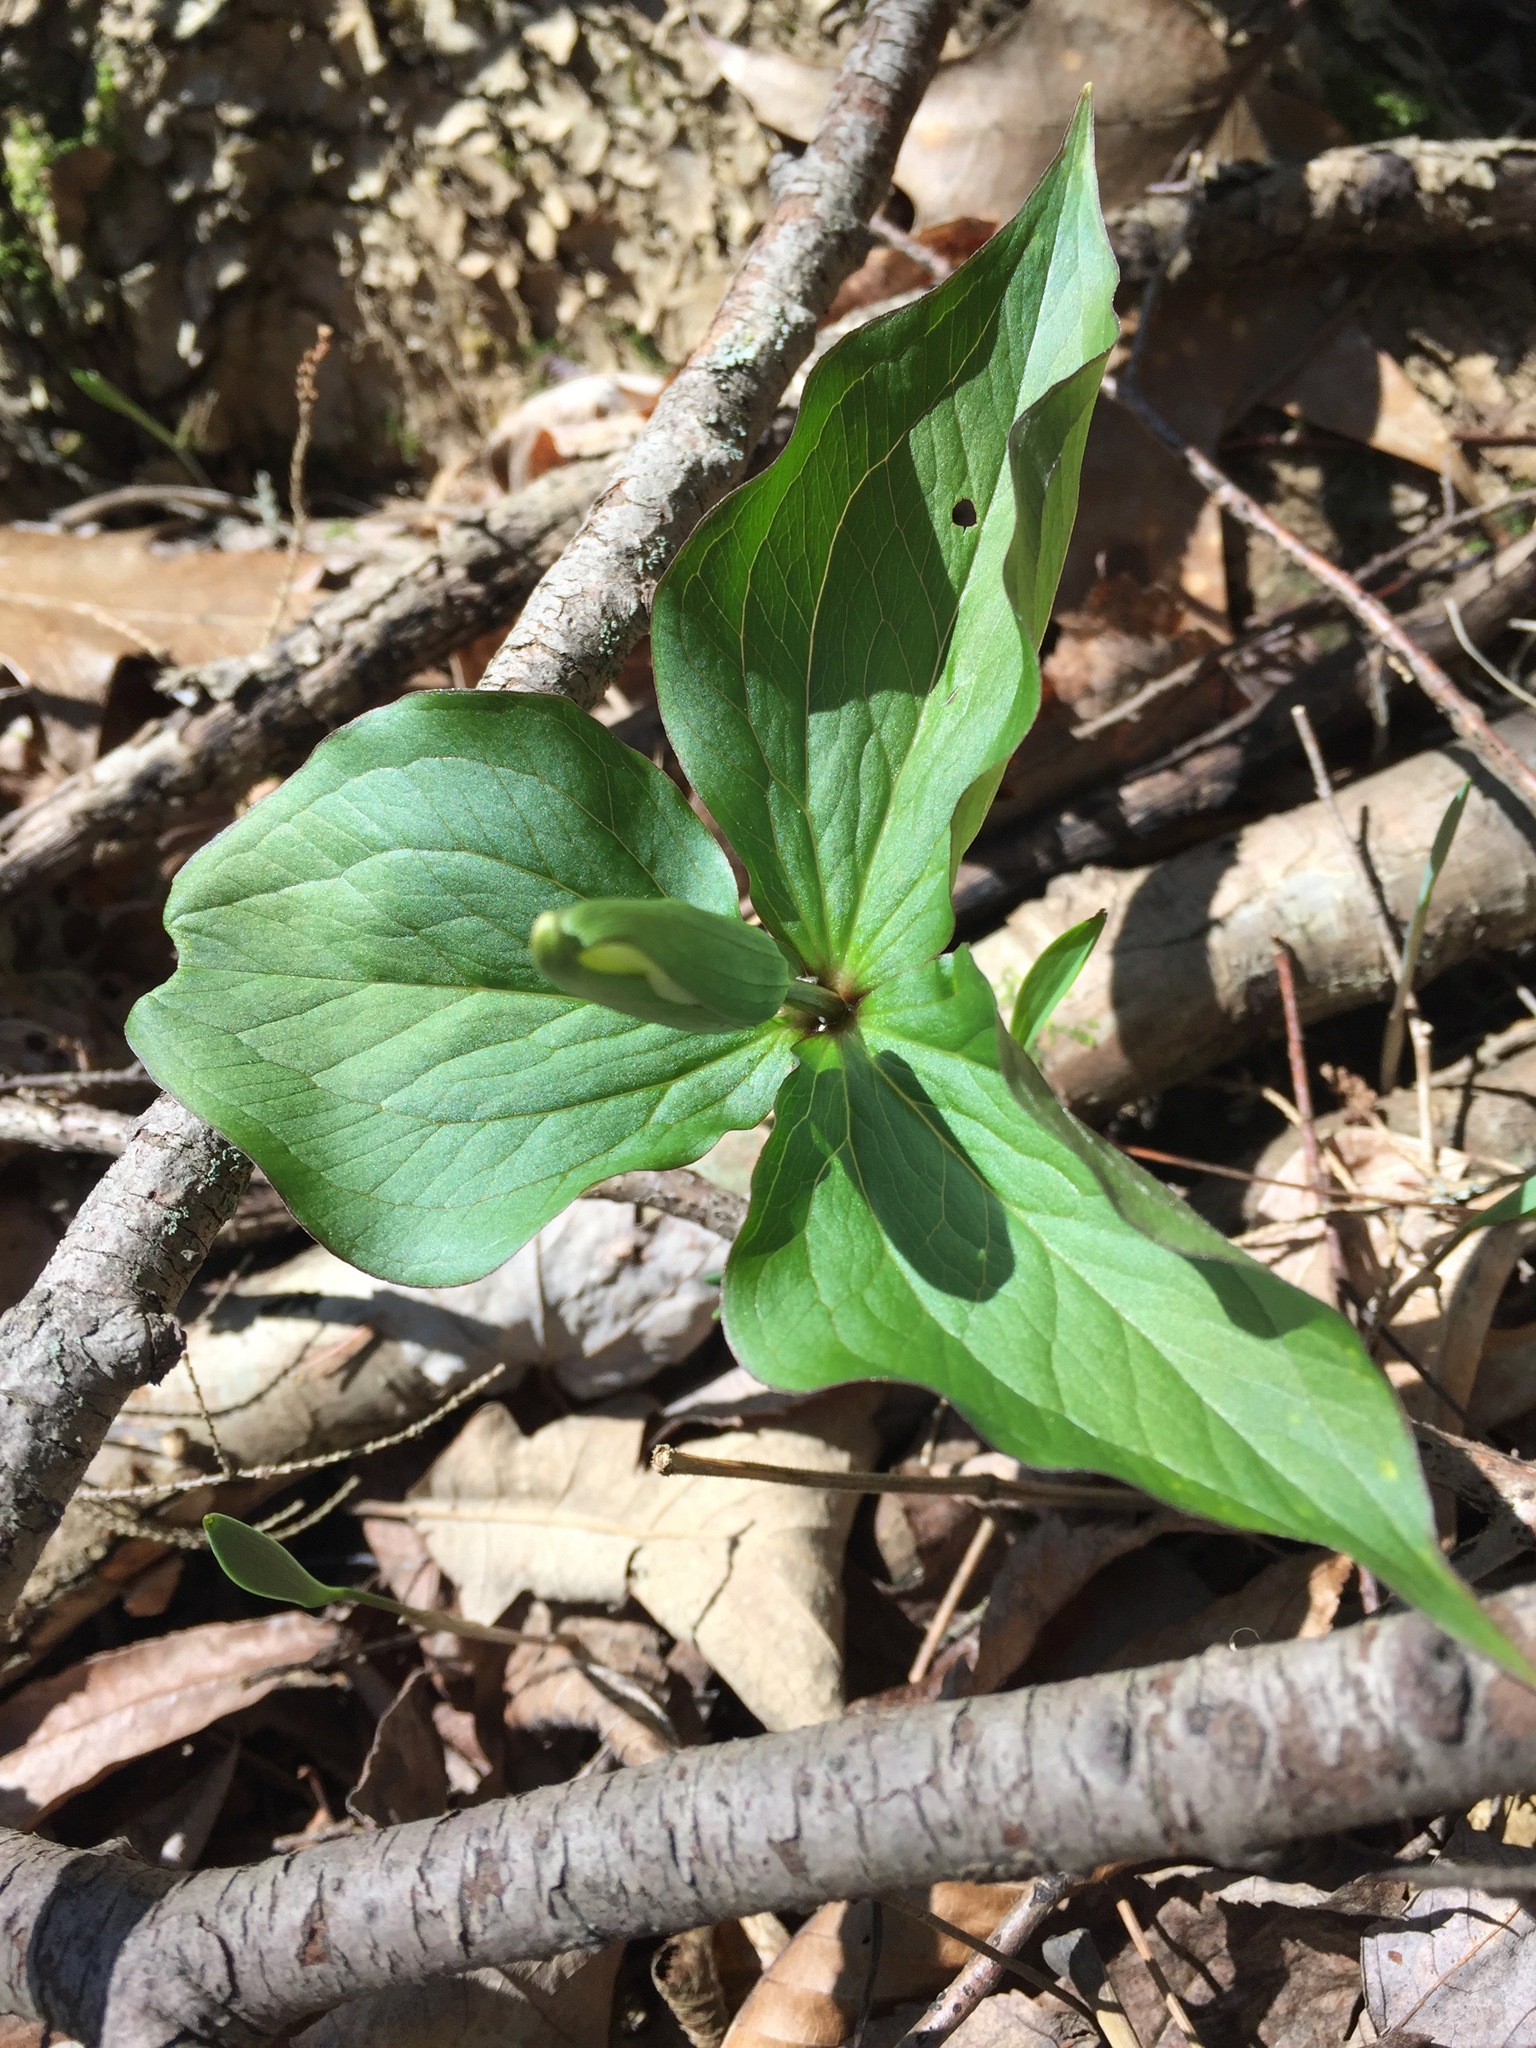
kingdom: Plantae
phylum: Tracheophyta
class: Liliopsida
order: Liliales
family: Melanthiaceae
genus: Trillium
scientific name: Trillium grandiflorum
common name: Great white trillium
